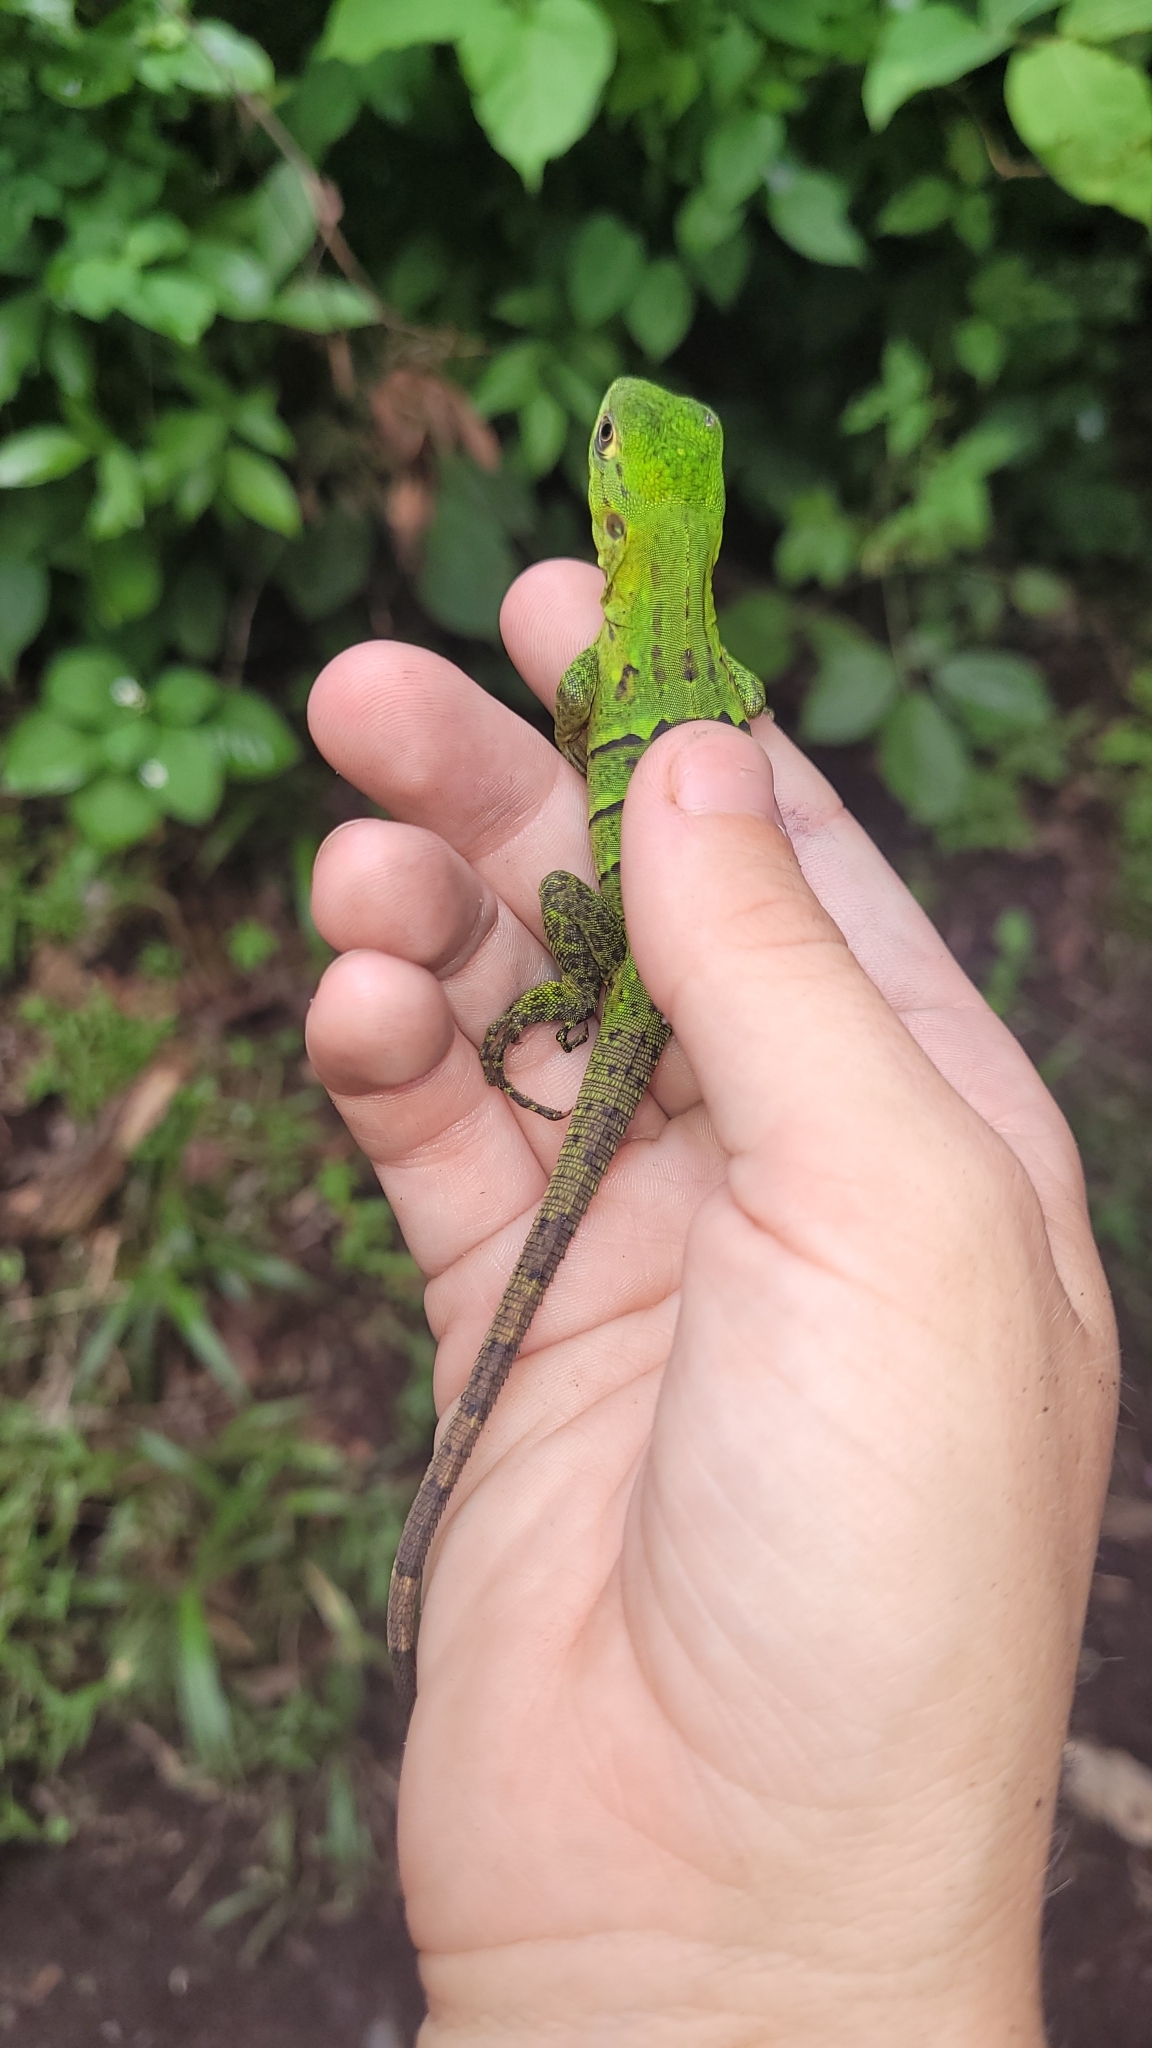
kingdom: Animalia
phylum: Chordata
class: Squamata
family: Iguanidae
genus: Ctenosaura
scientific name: Ctenosaura similis
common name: Black spiny-tailed iguana
